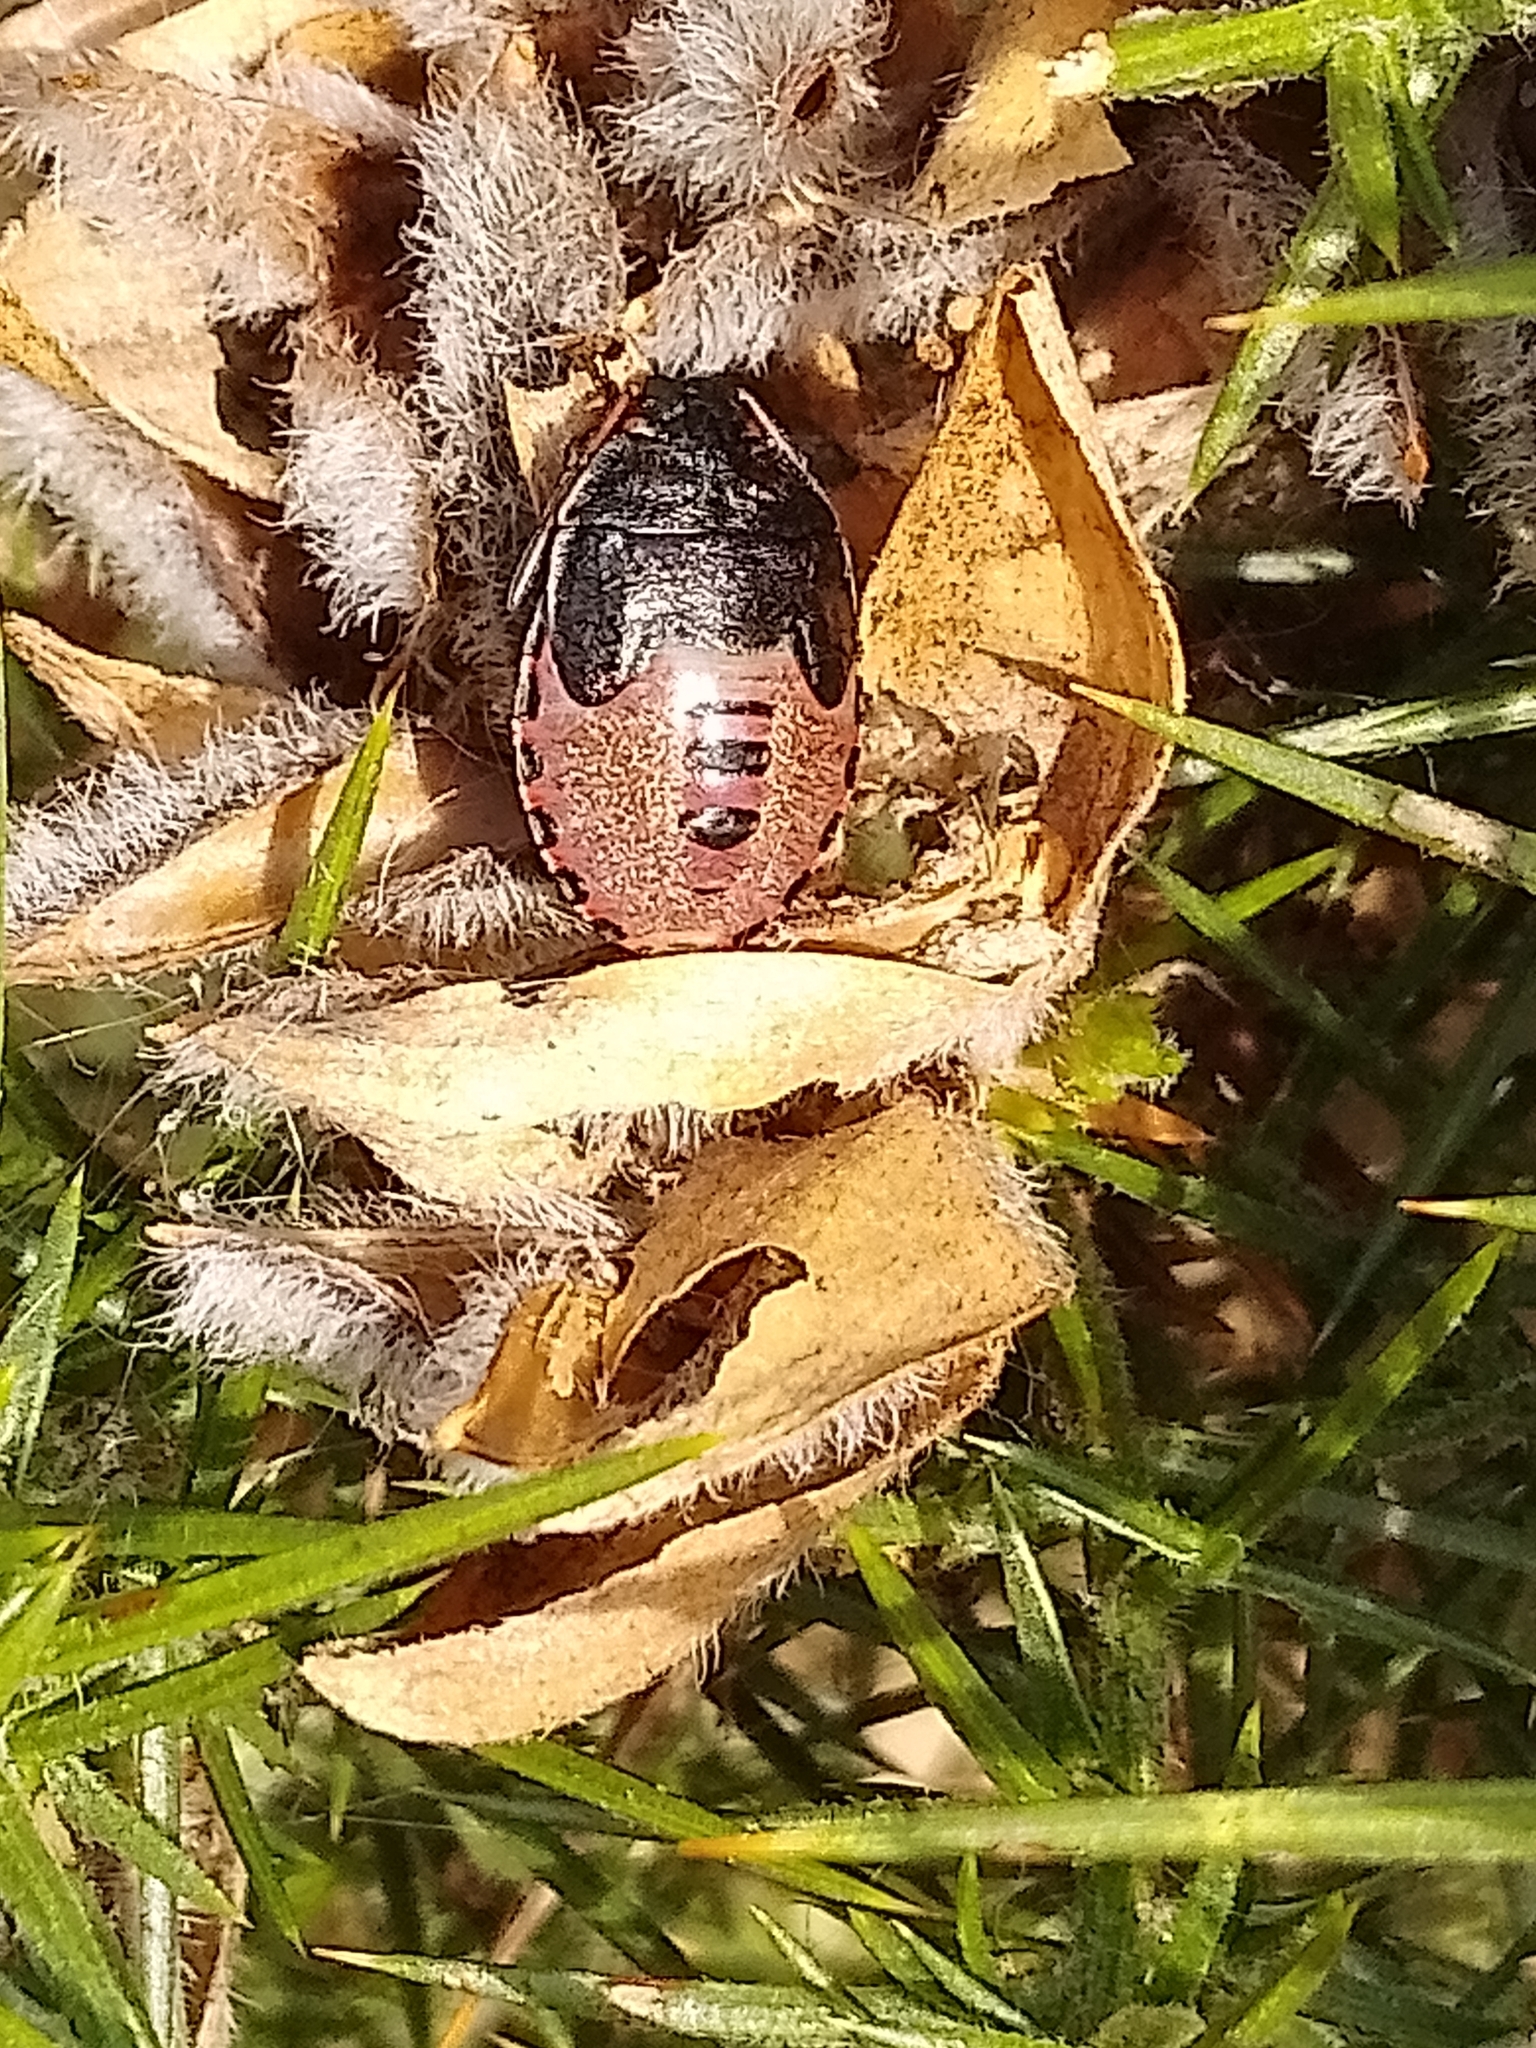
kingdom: Animalia
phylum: Arthropoda
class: Insecta
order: Hemiptera
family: Pentatomidae
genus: Piezodorus
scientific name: Piezodorus lituratus
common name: Stink bug
